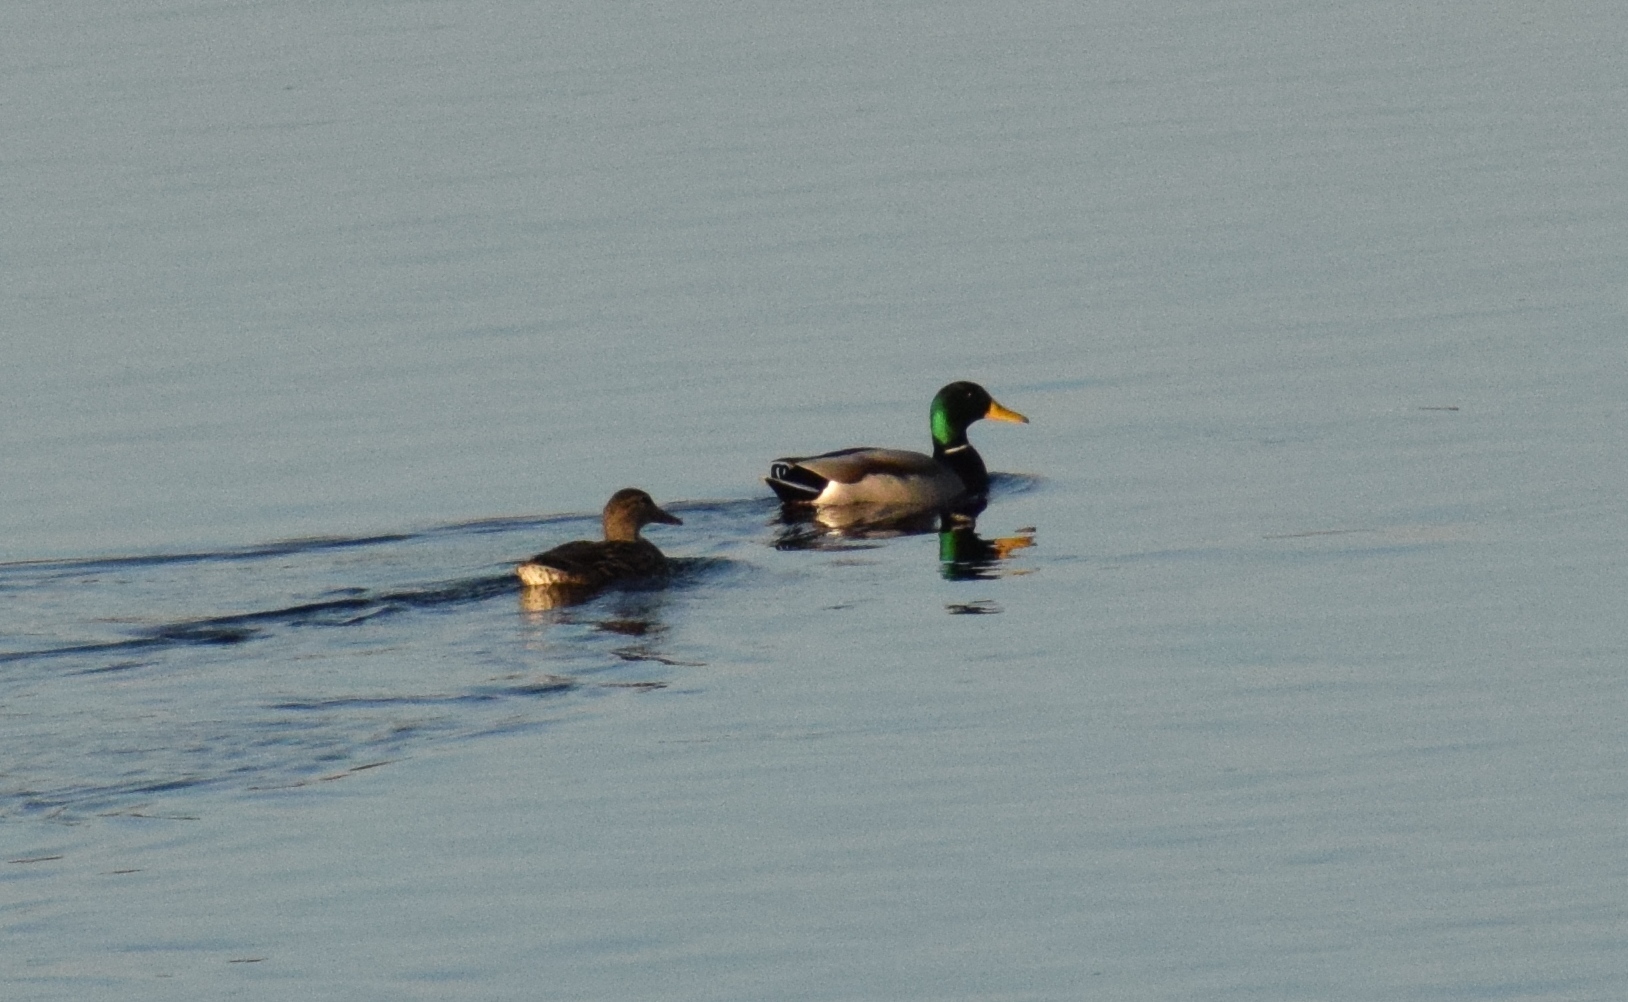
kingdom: Animalia
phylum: Chordata
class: Aves
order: Anseriformes
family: Anatidae
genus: Anas
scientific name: Anas platyrhynchos
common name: Mallard
